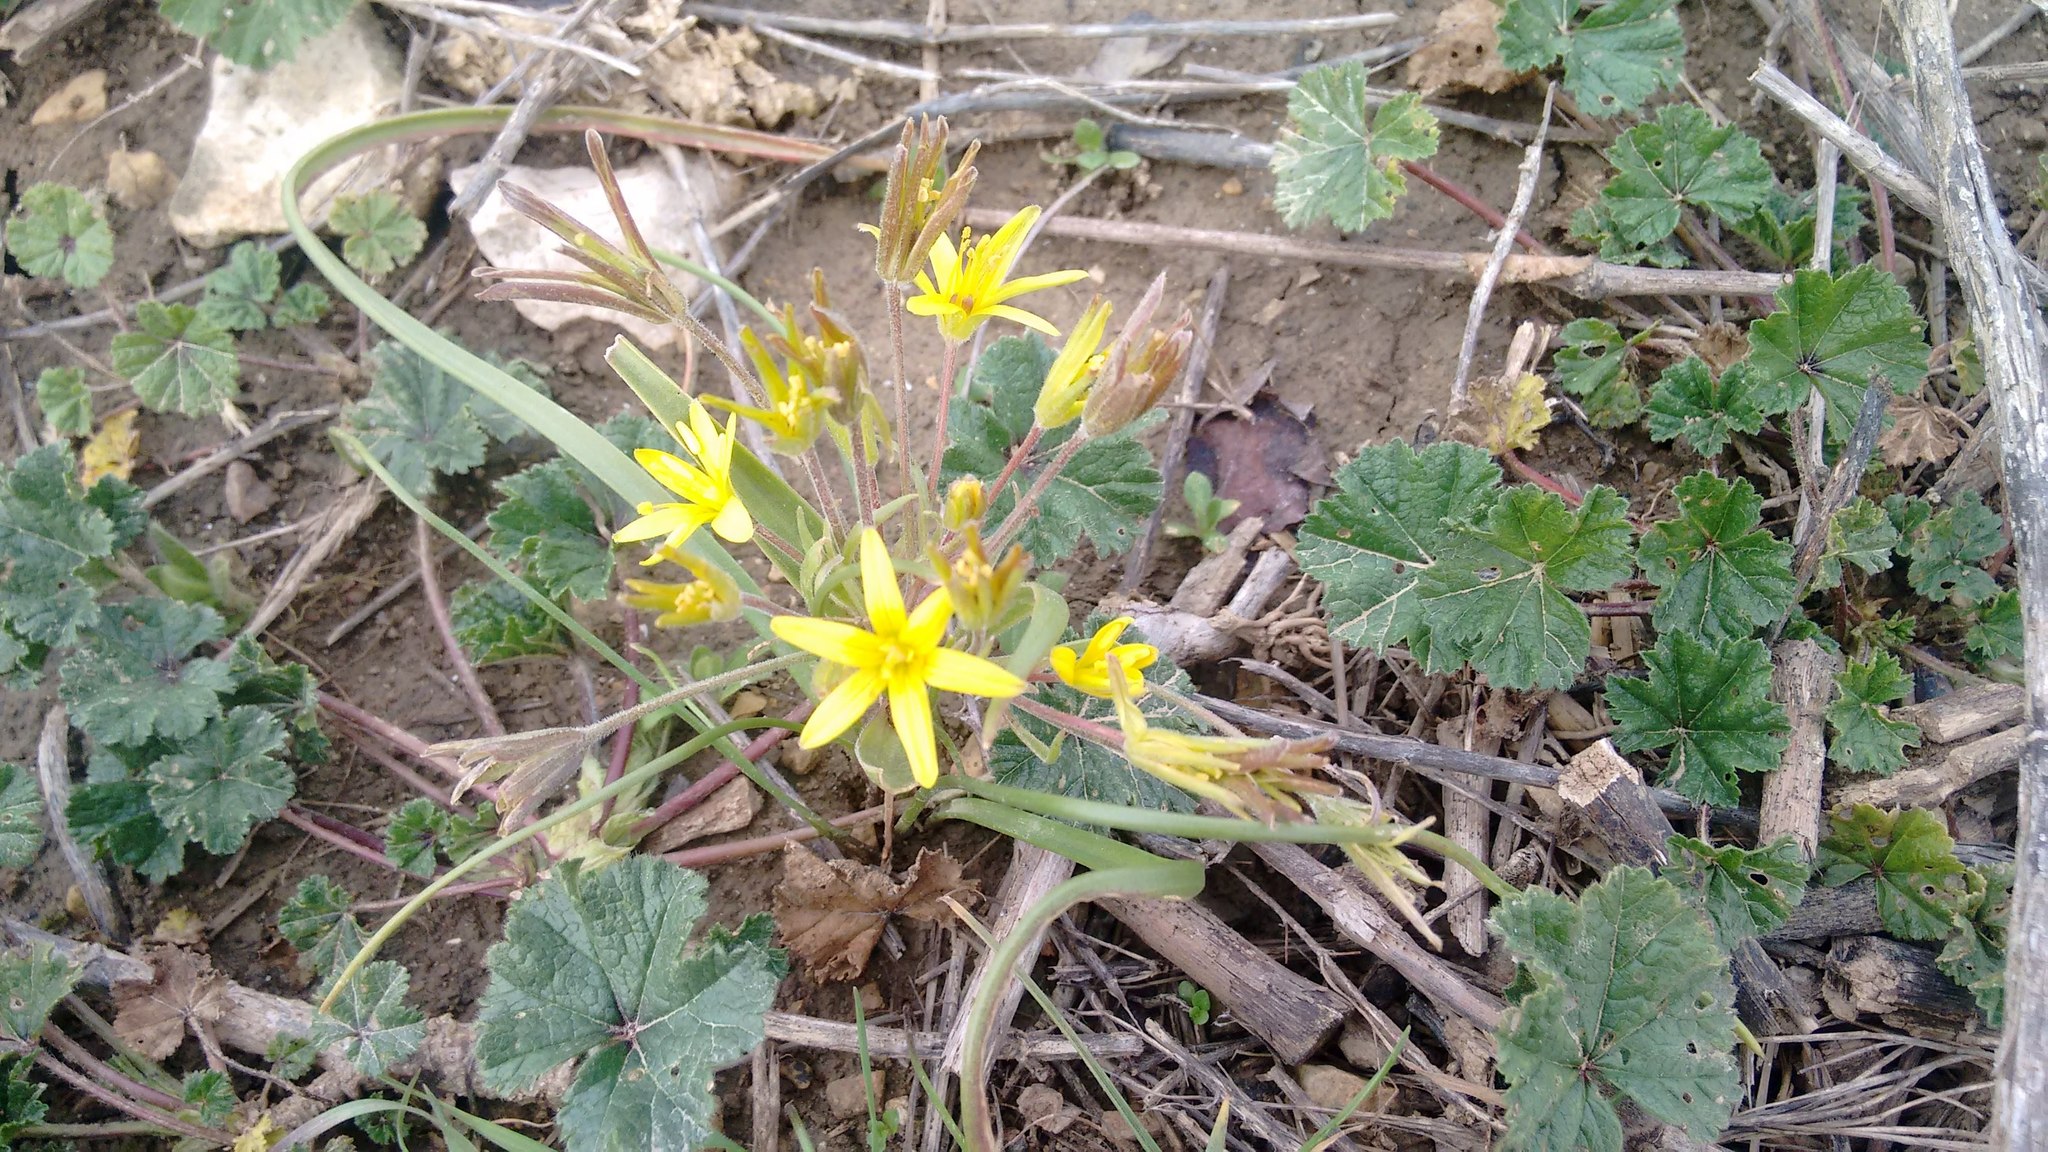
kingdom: Plantae
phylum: Tracheophyta
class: Liliopsida
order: Liliales
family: Liliaceae
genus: Gagea
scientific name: Gagea villosa
